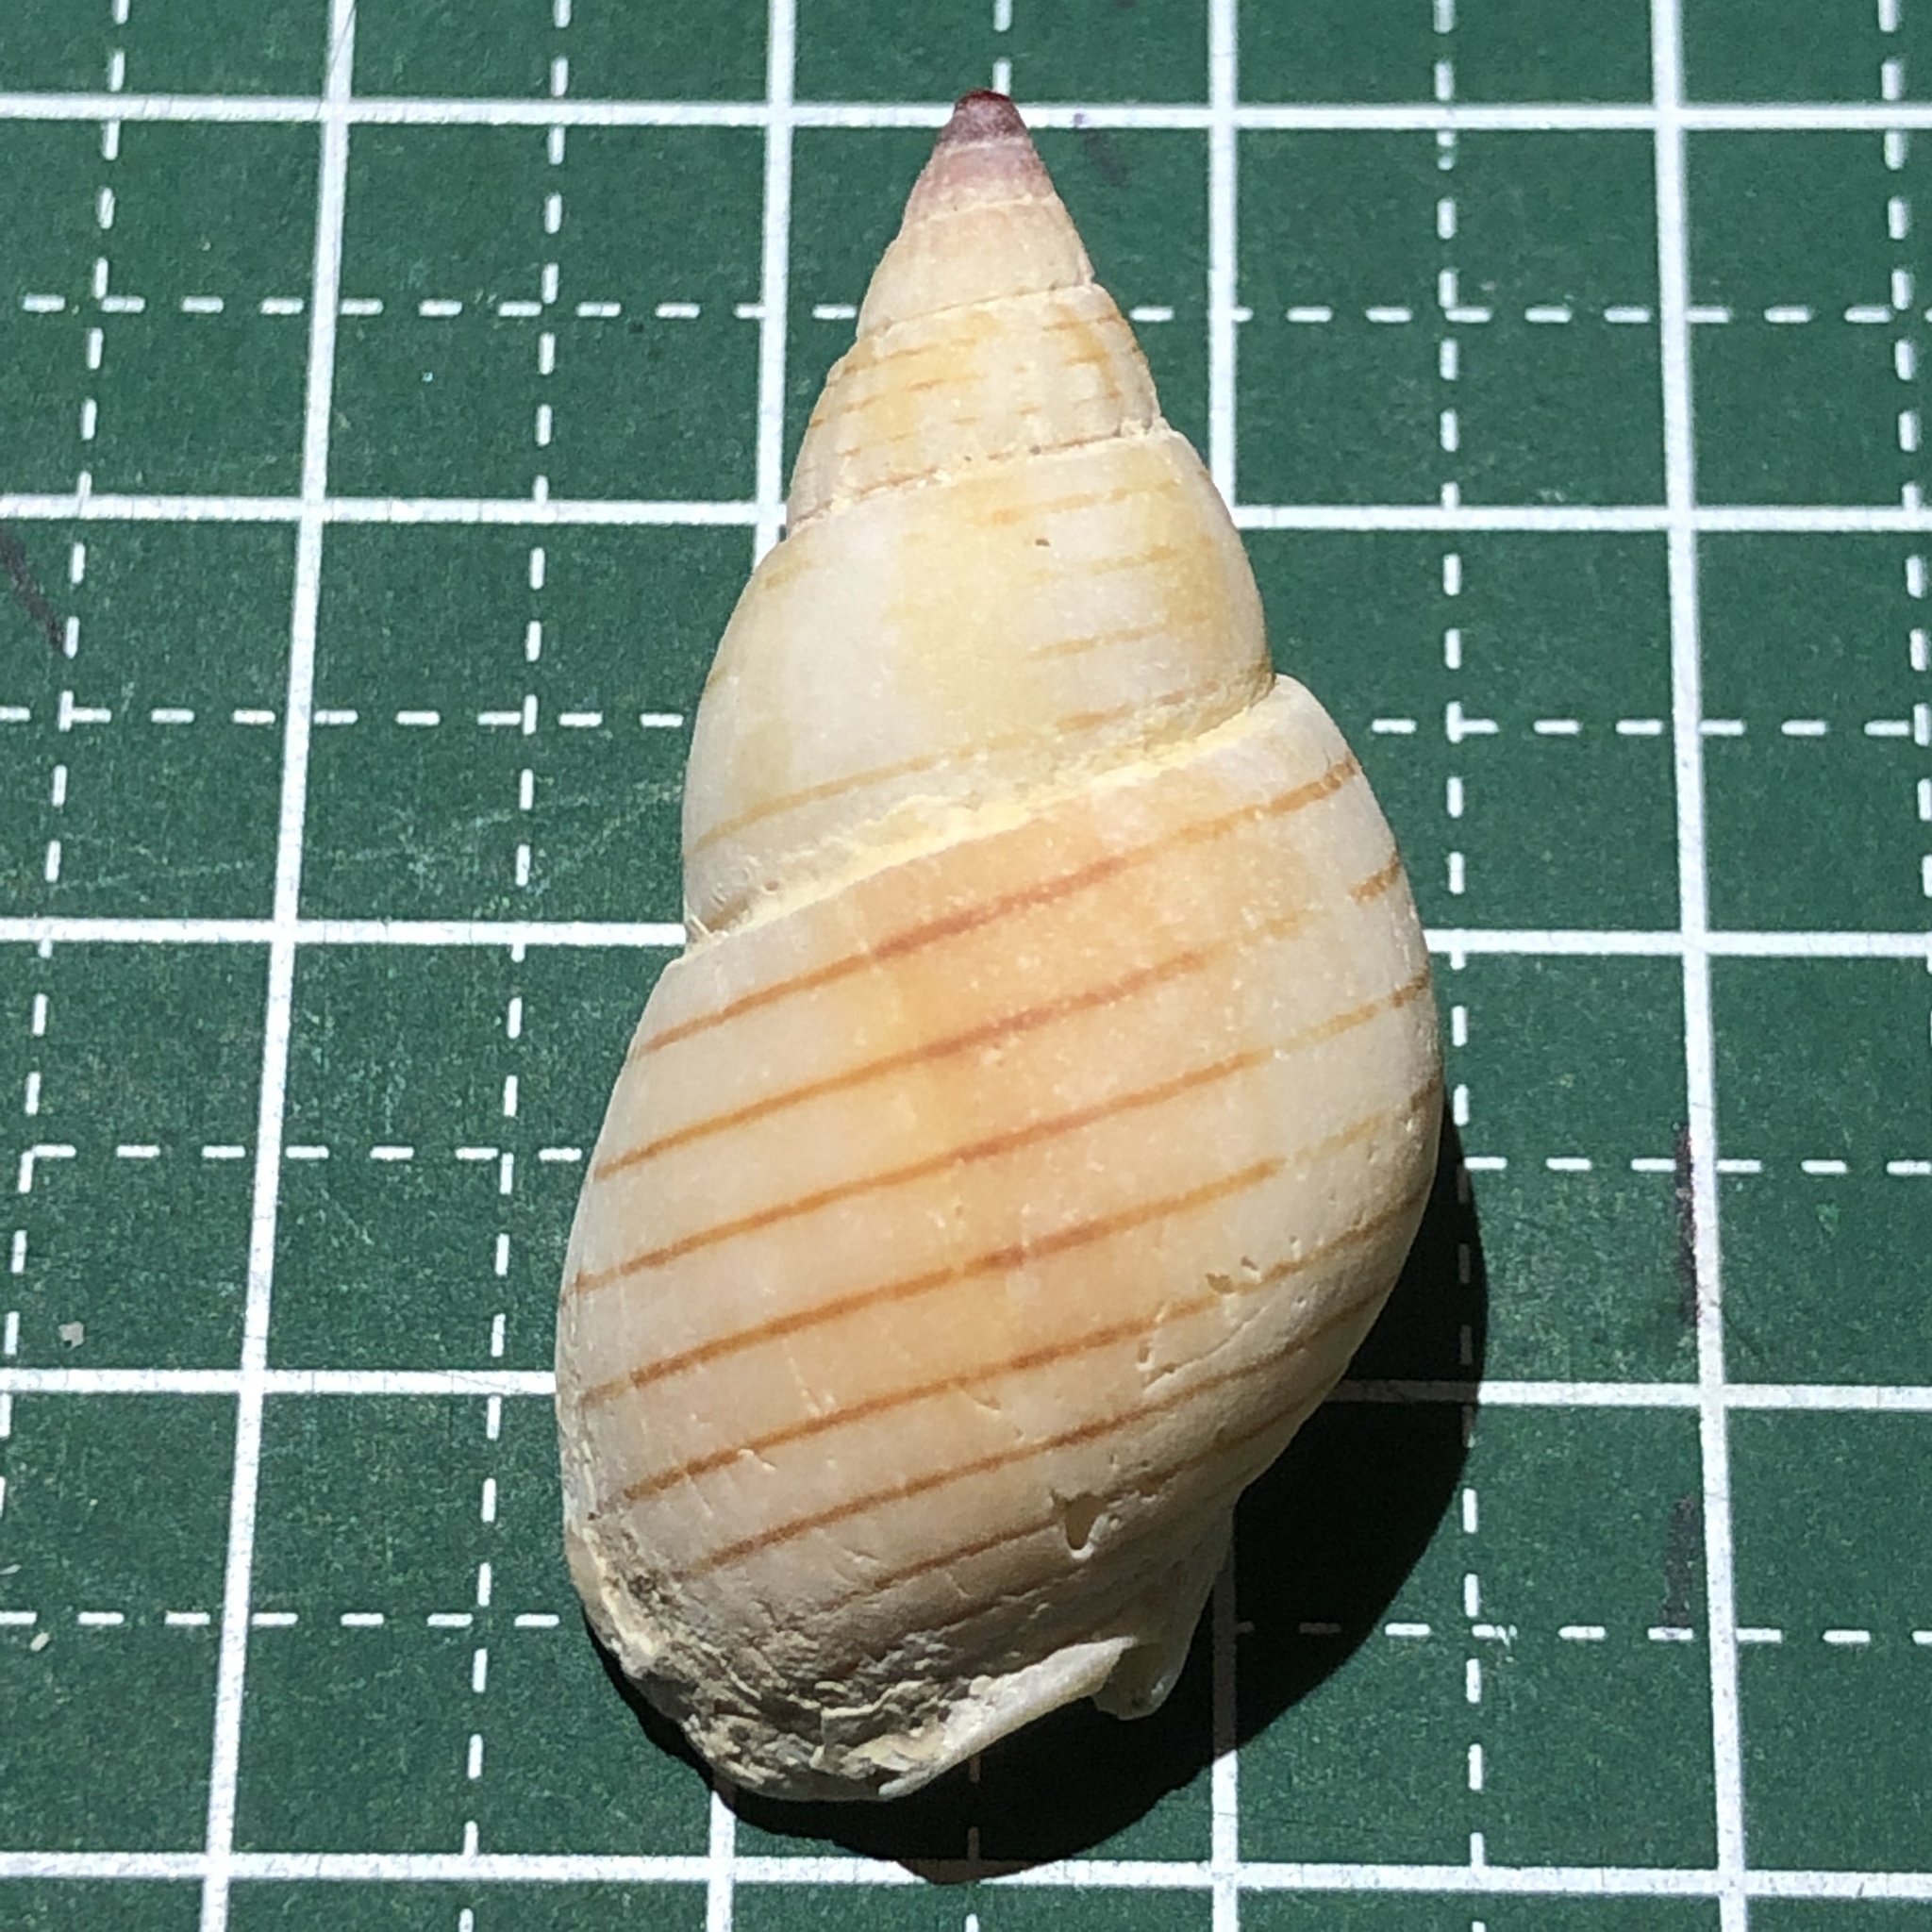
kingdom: Animalia
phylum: Mollusca
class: Gastropoda
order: Neogastropoda
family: Nassariidae
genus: Nassarius
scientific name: Nassarius glans
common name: Glans nassa
